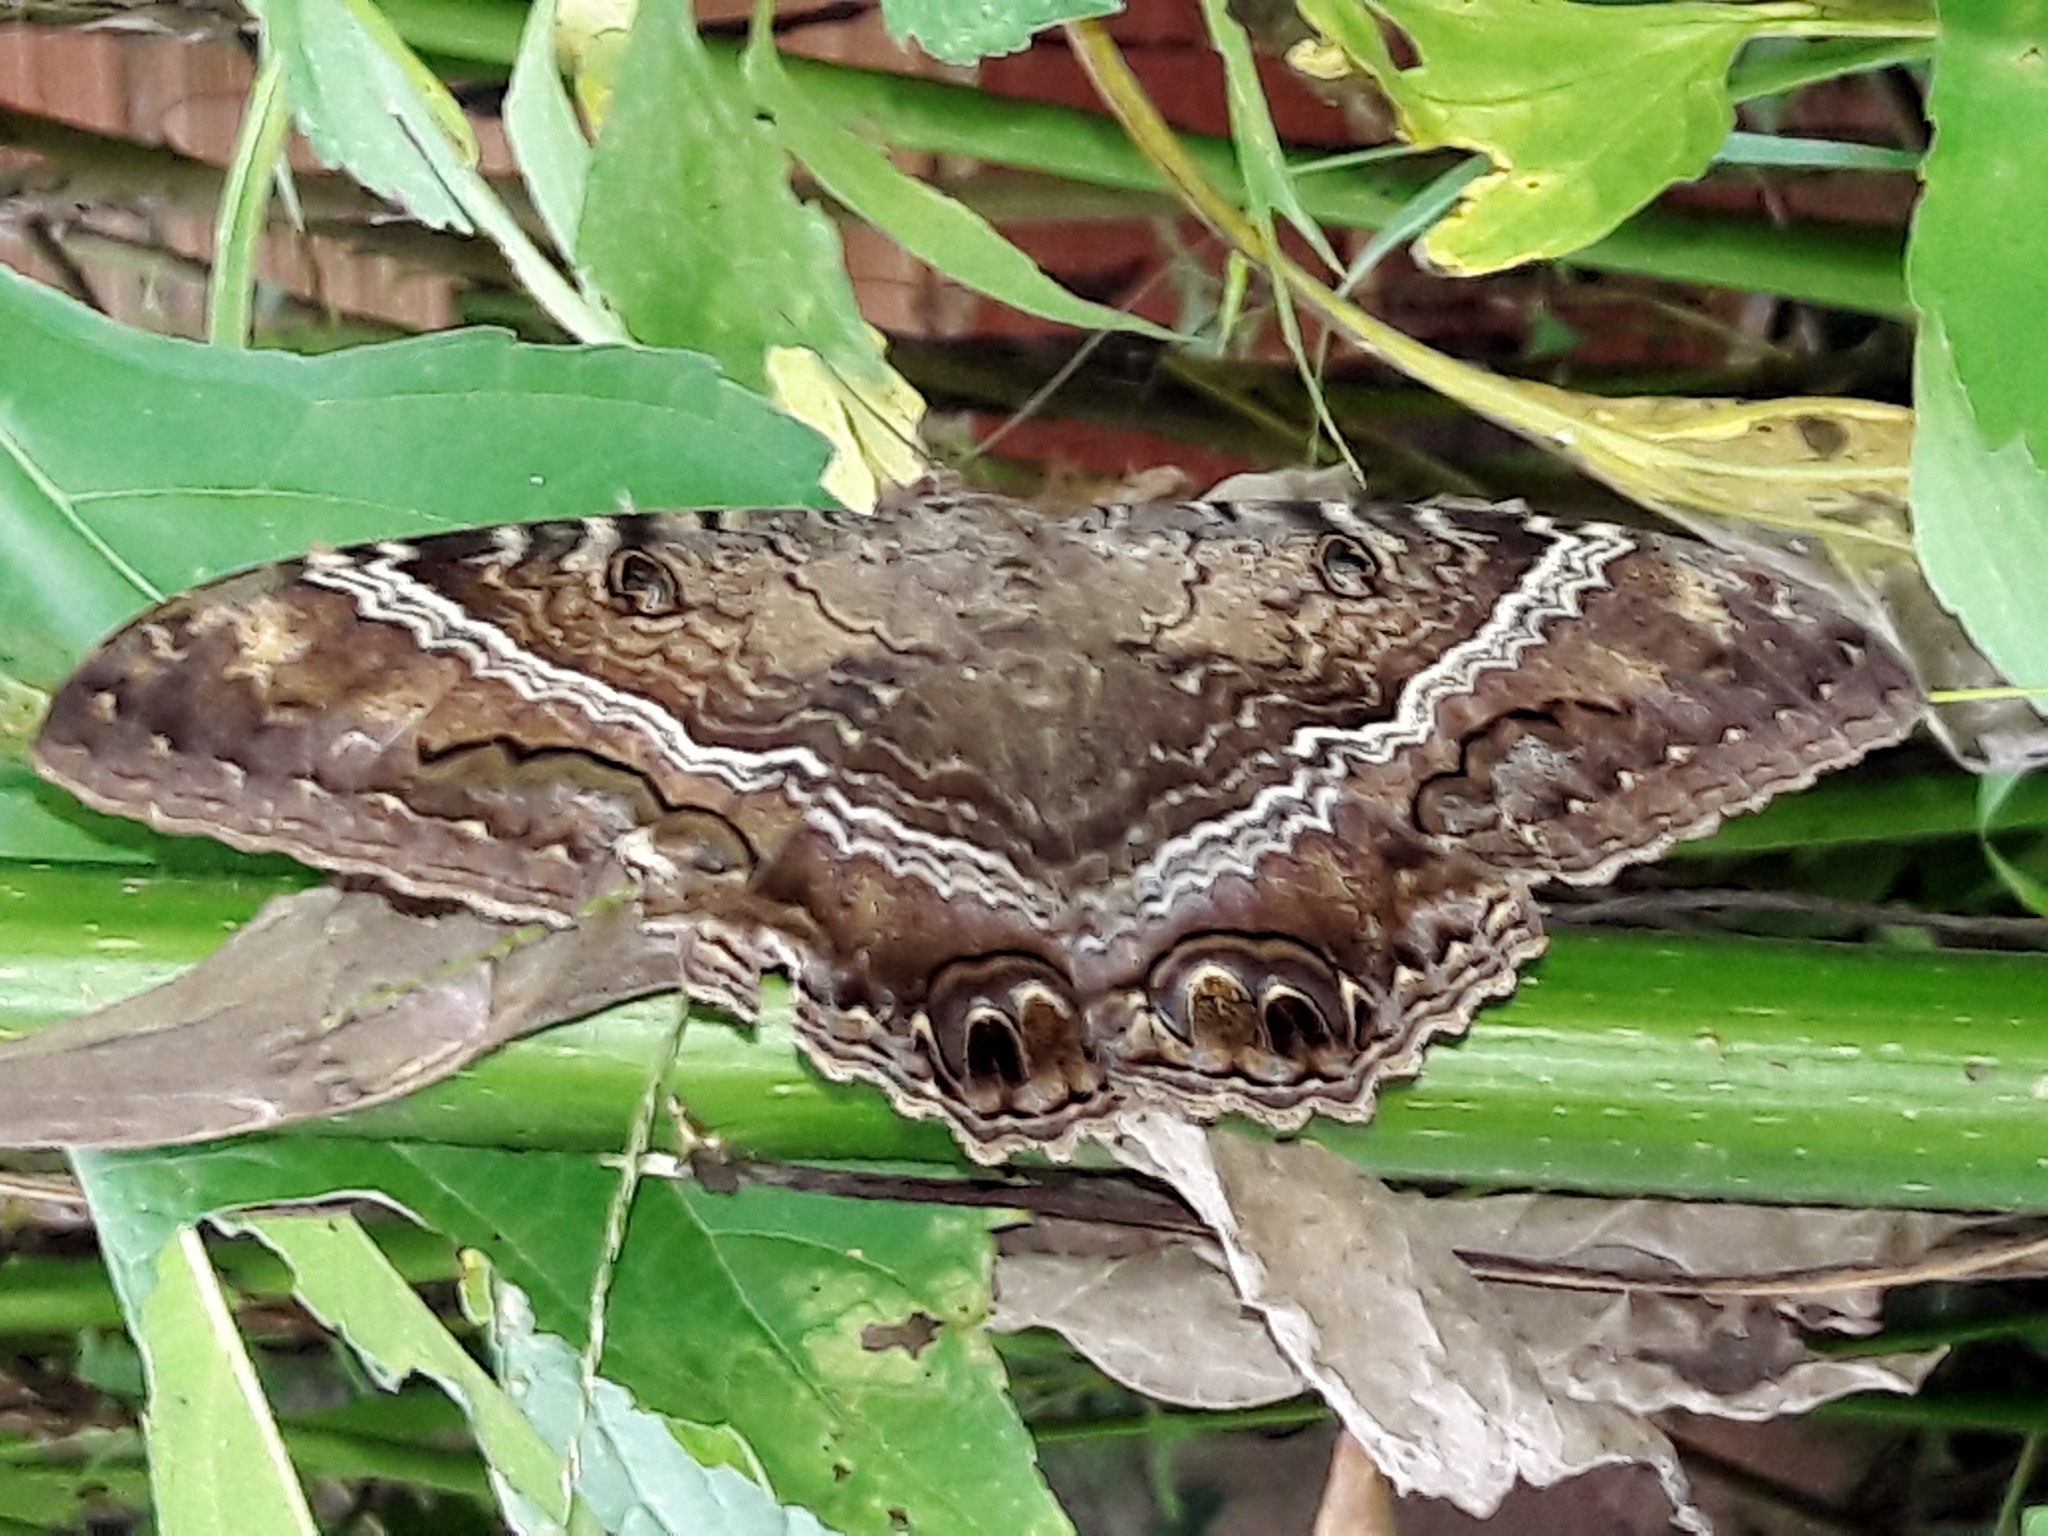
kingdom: Animalia
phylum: Arthropoda
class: Insecta
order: Lepidoptera
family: Erebidae
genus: Ascalapha
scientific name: Ascalapha odorata
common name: Black witch
